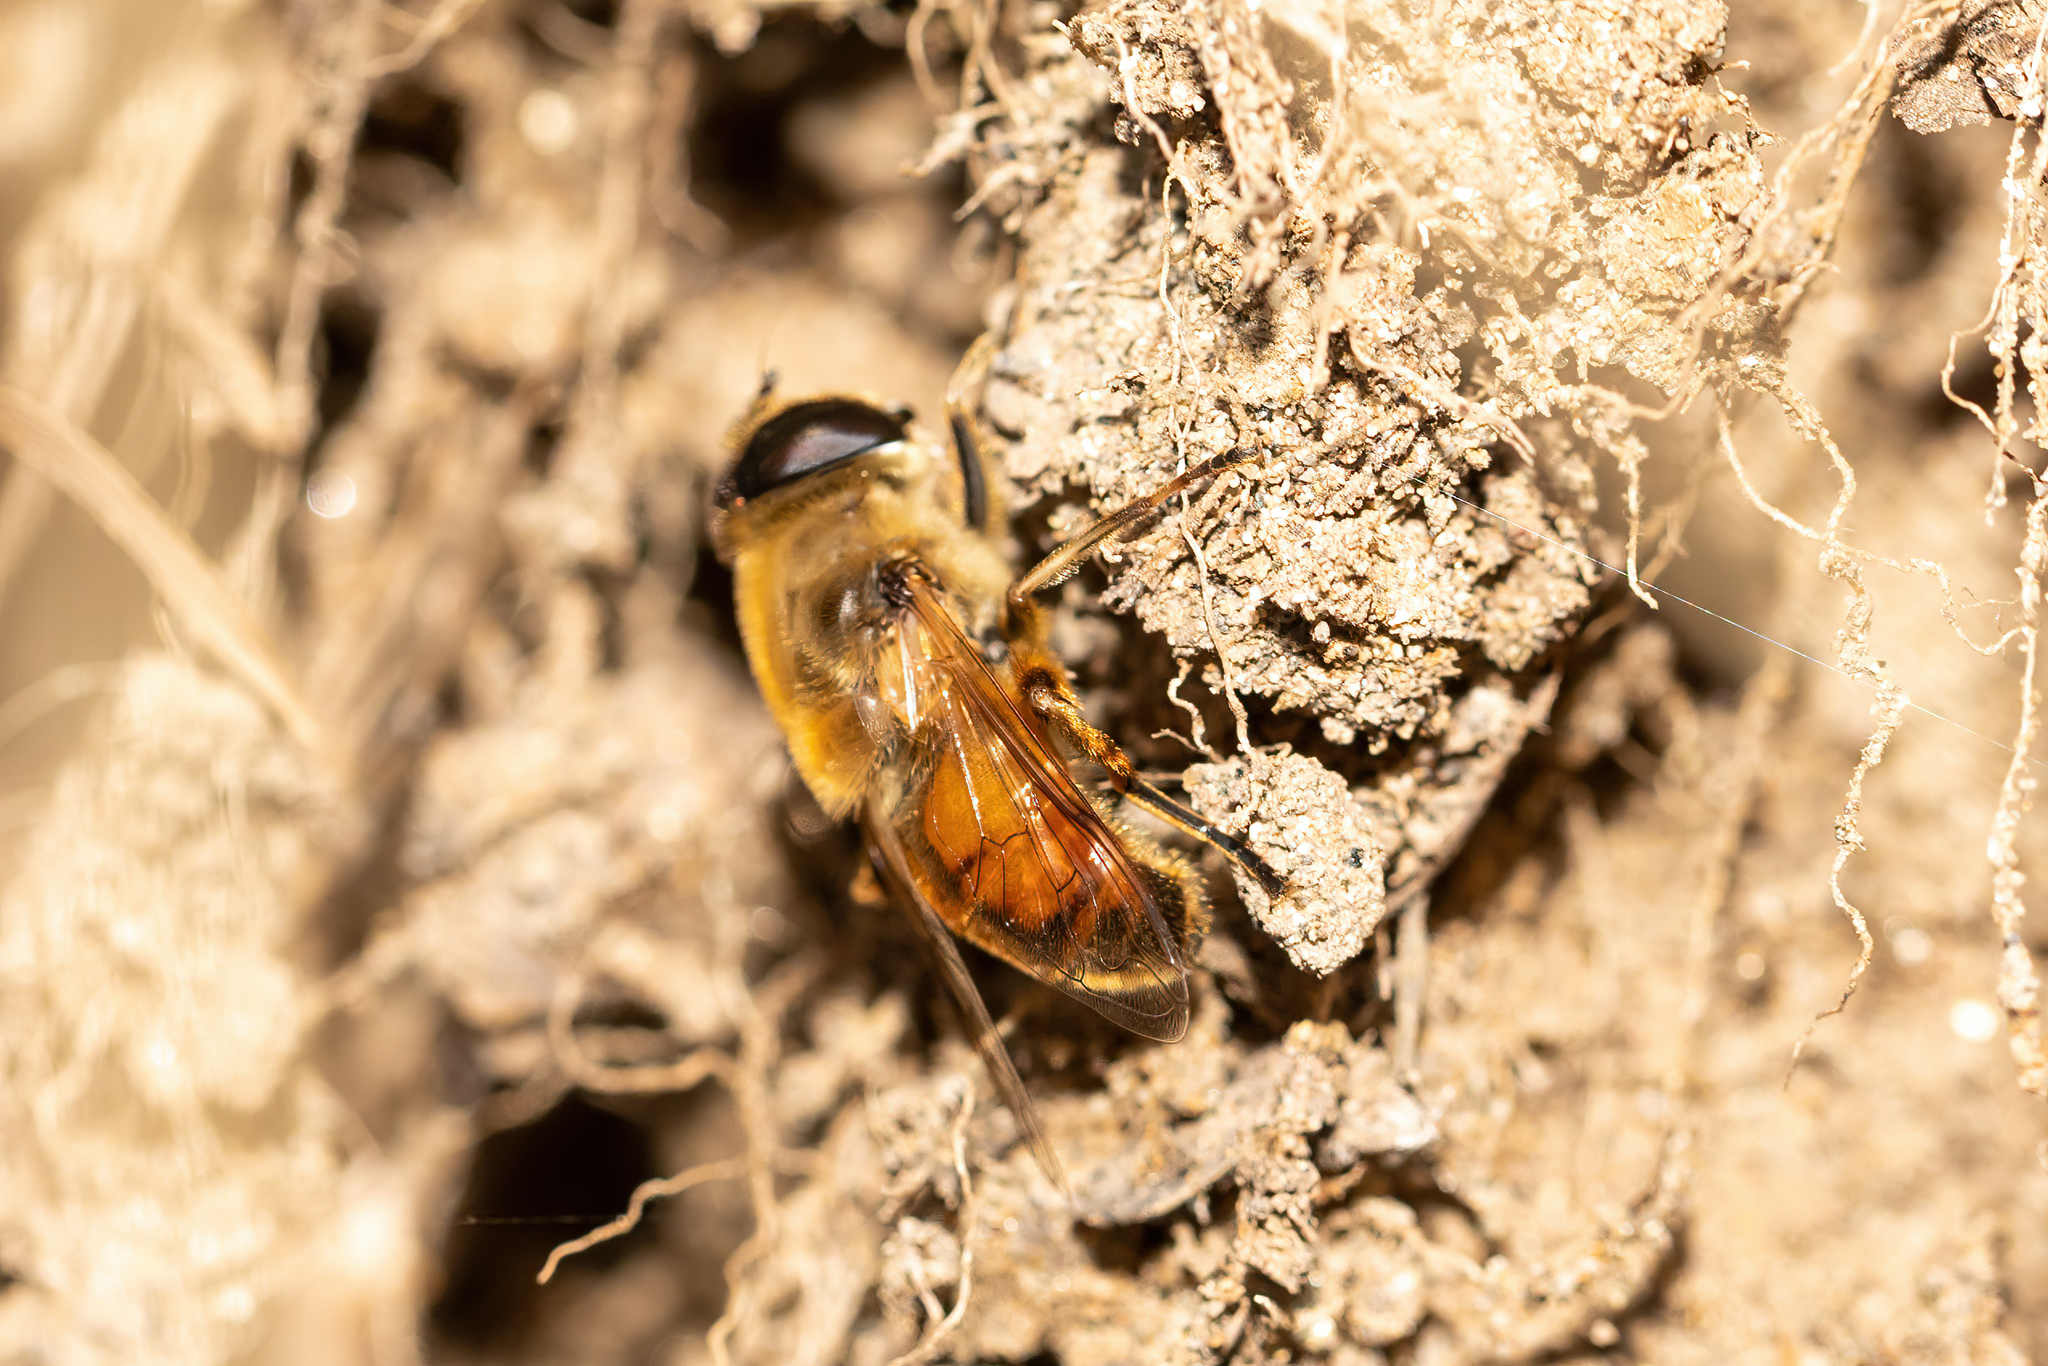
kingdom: Animalia
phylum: Arthropoda
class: Insecta
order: Diptera
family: Syrphidae
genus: Eristalis
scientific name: Eristalis tenax
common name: Drone fly
